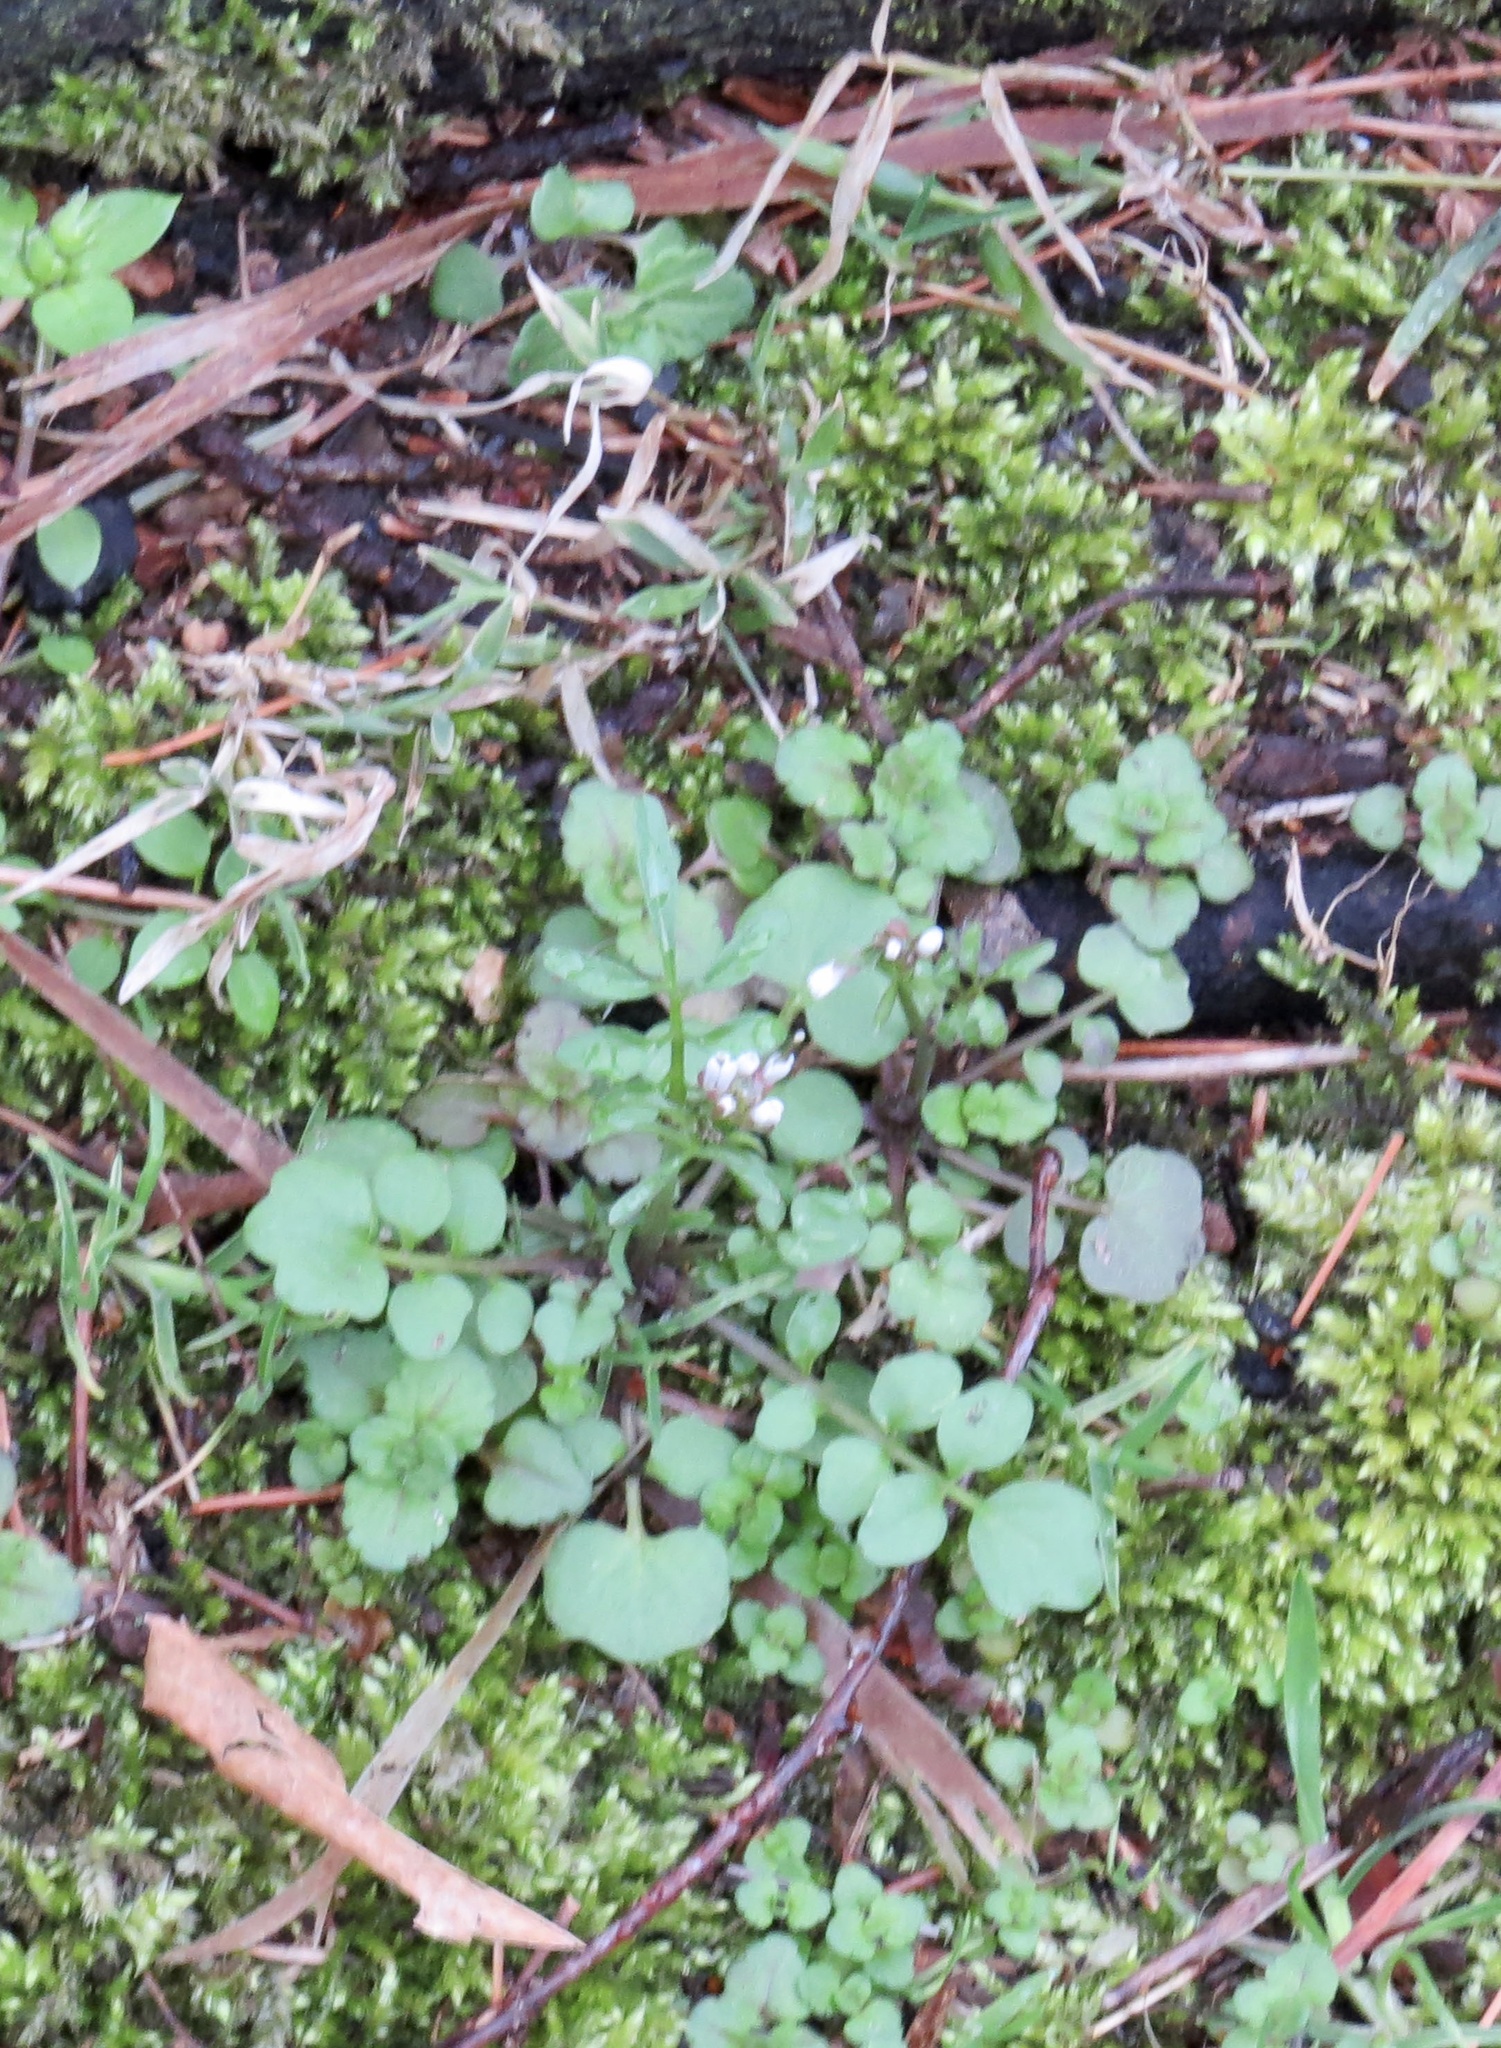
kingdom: Plantae
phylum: Tracheophyta
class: Magnoliopsida
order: Brassicales
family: Brassicaceae
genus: Cardamine
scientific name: Cardamine hirsuta
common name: Hairy bittercress
